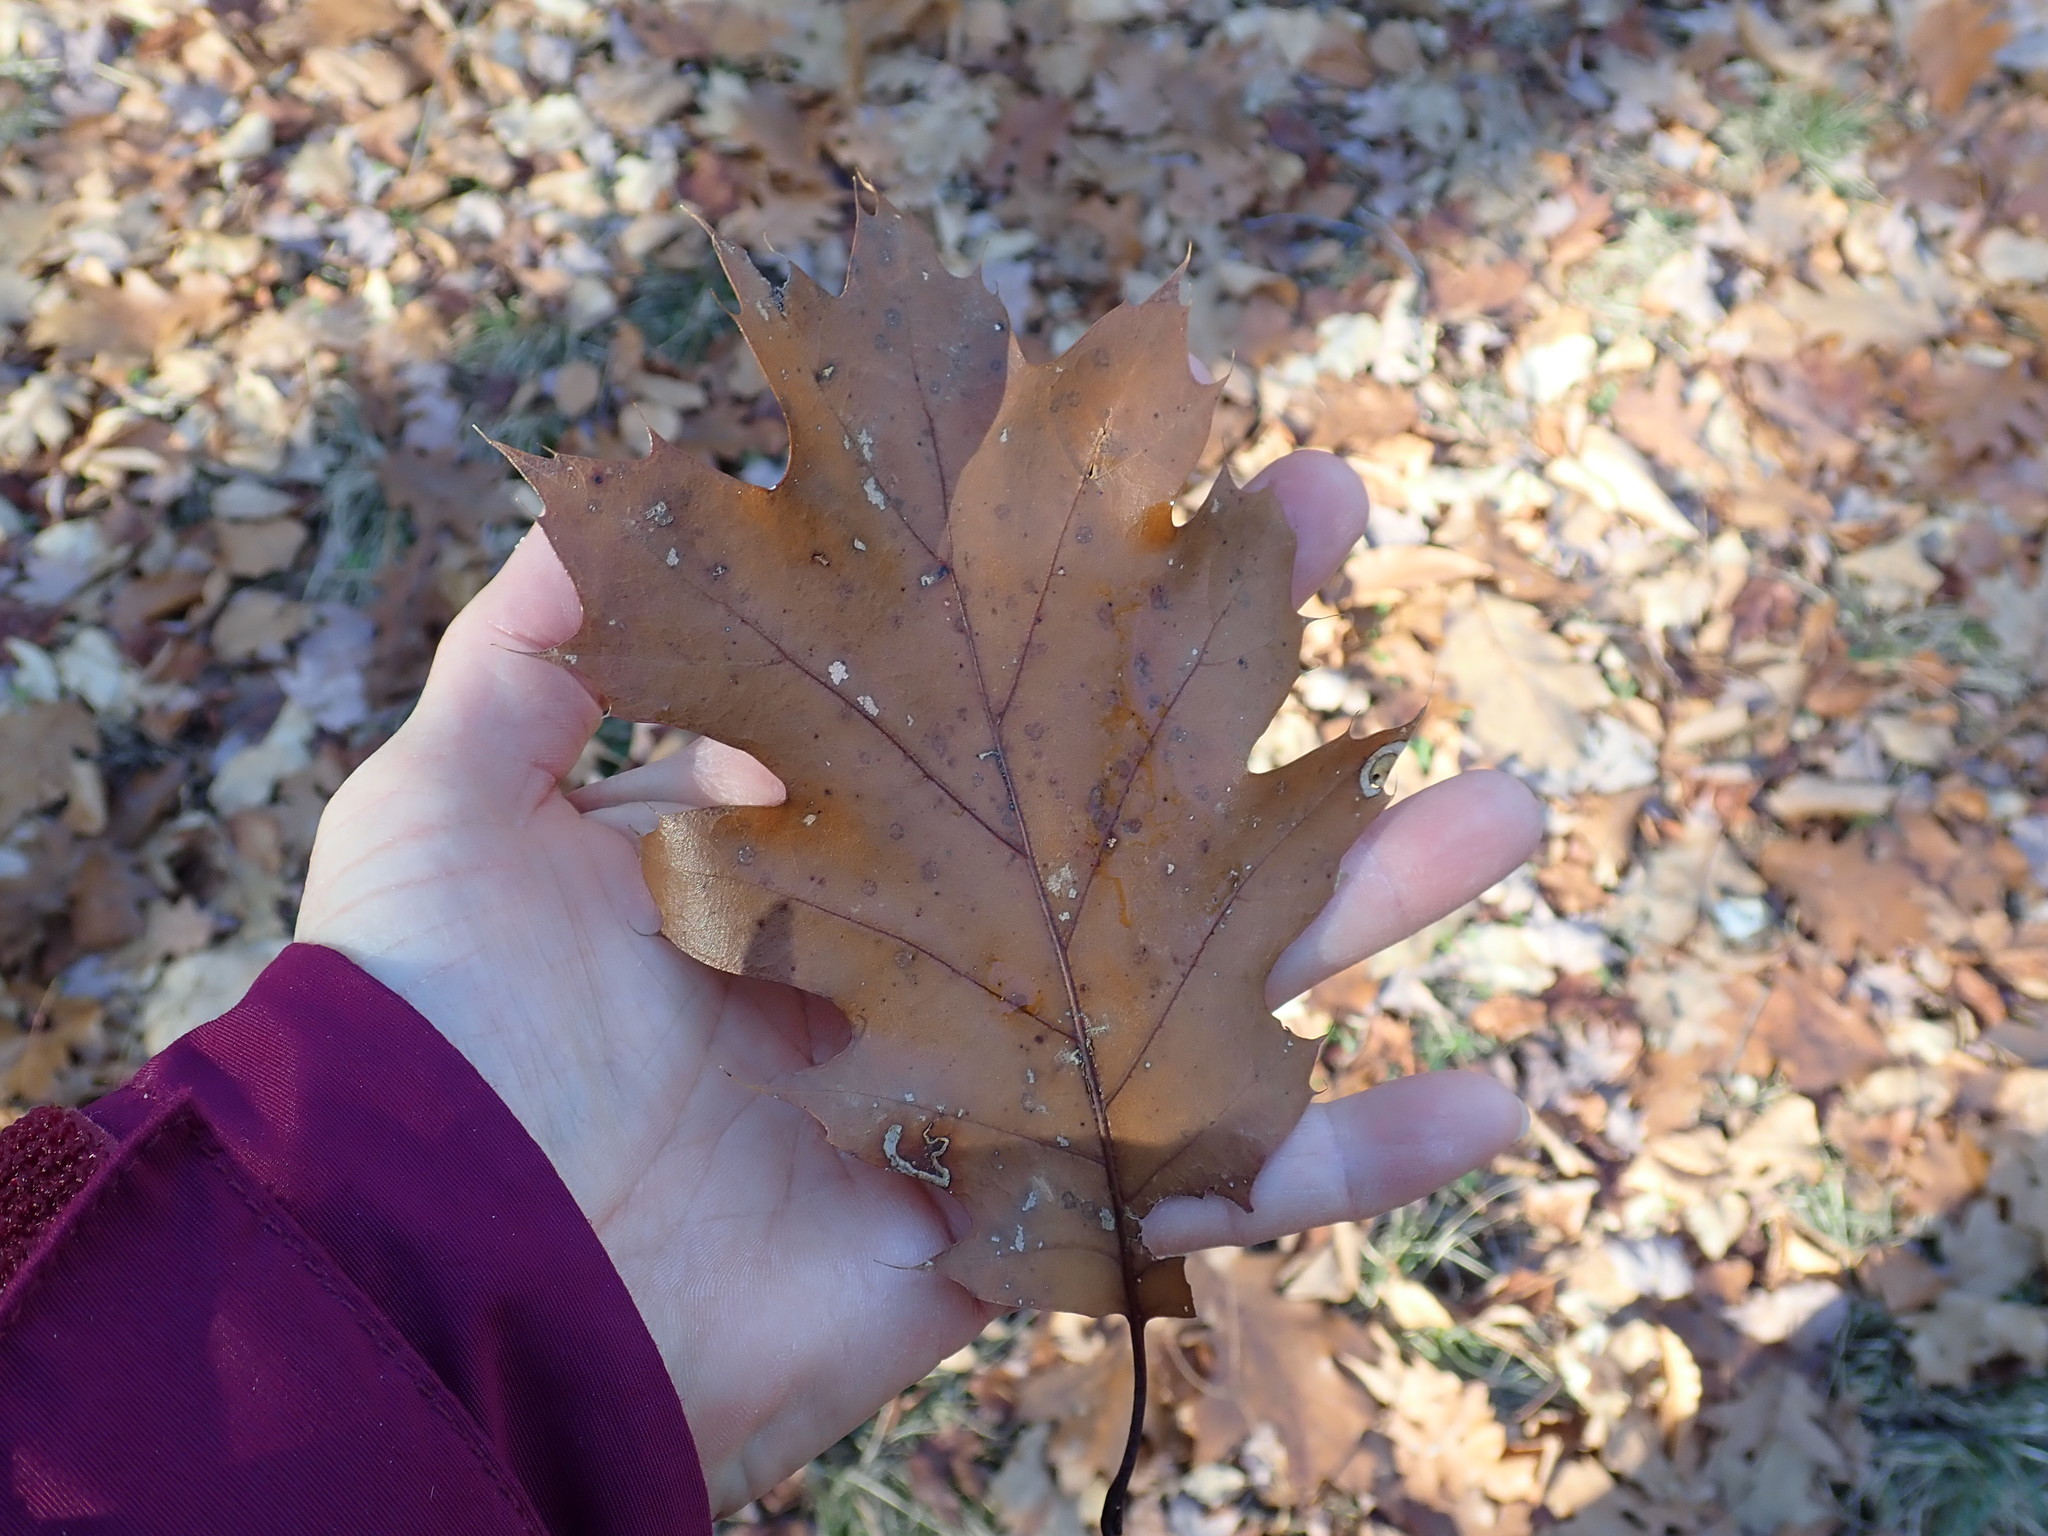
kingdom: Plantae
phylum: Tracheophyta
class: Magnoliopsida
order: Fagales
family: Fagaceae
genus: Quercus
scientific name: Quercus rubra
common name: Red oak
